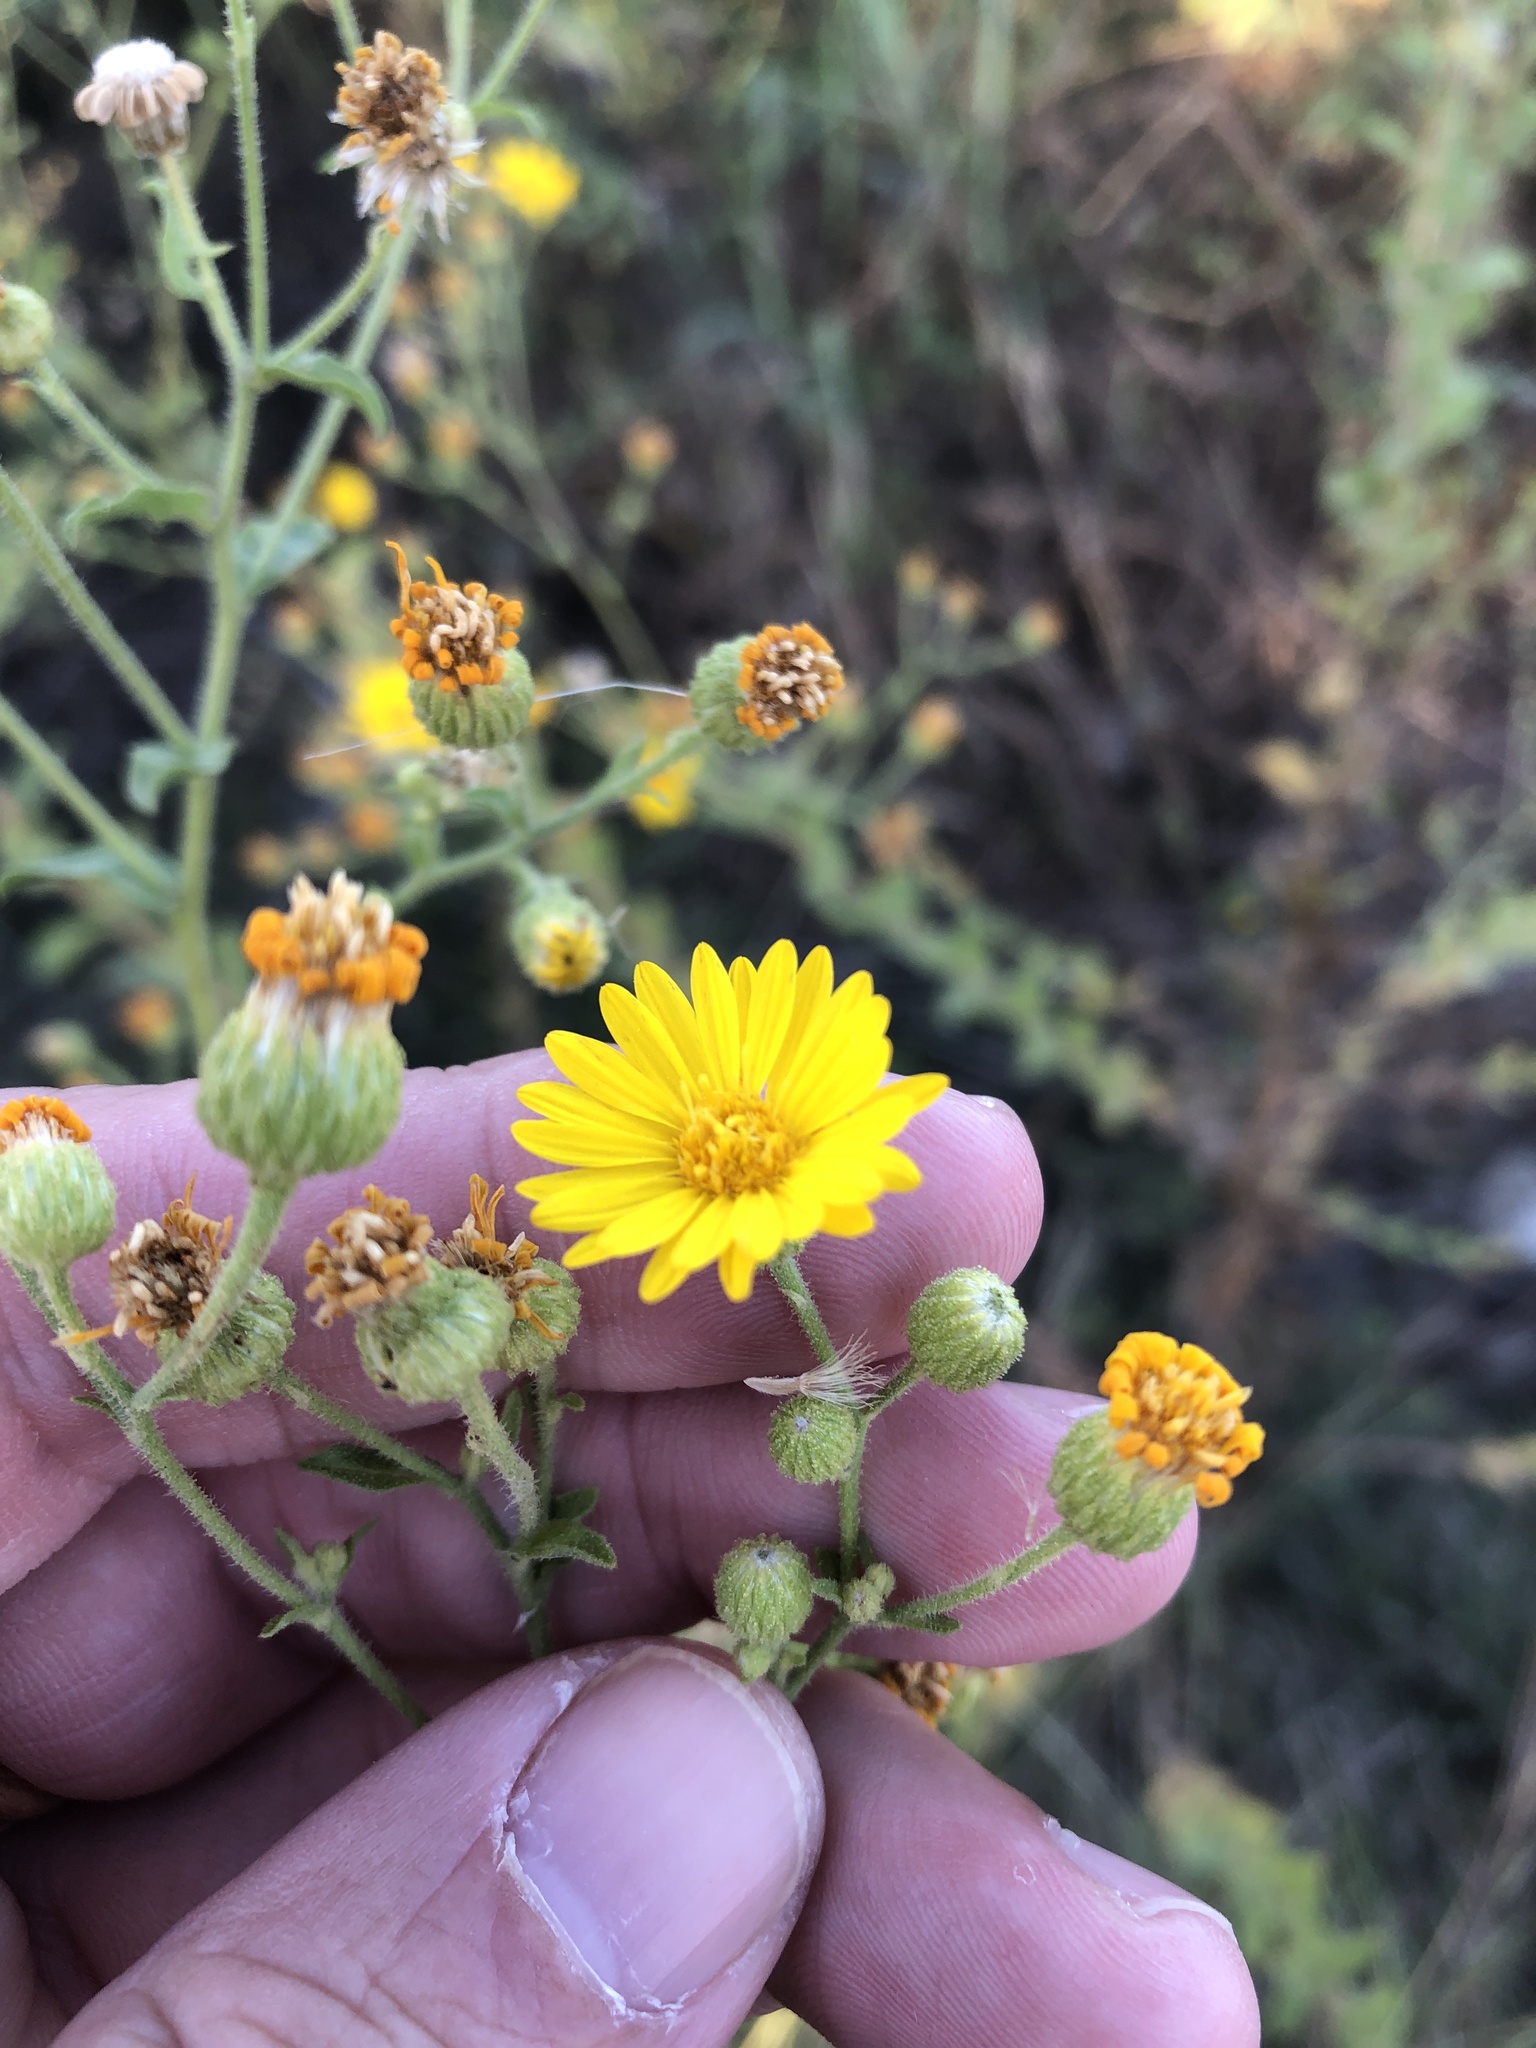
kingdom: Plantae
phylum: Tracheophyta
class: Magnoliopsida
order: Asterales
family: Asteraceae
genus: Heterotheca
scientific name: Heterotheca subaxillaris
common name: Camphorweed
